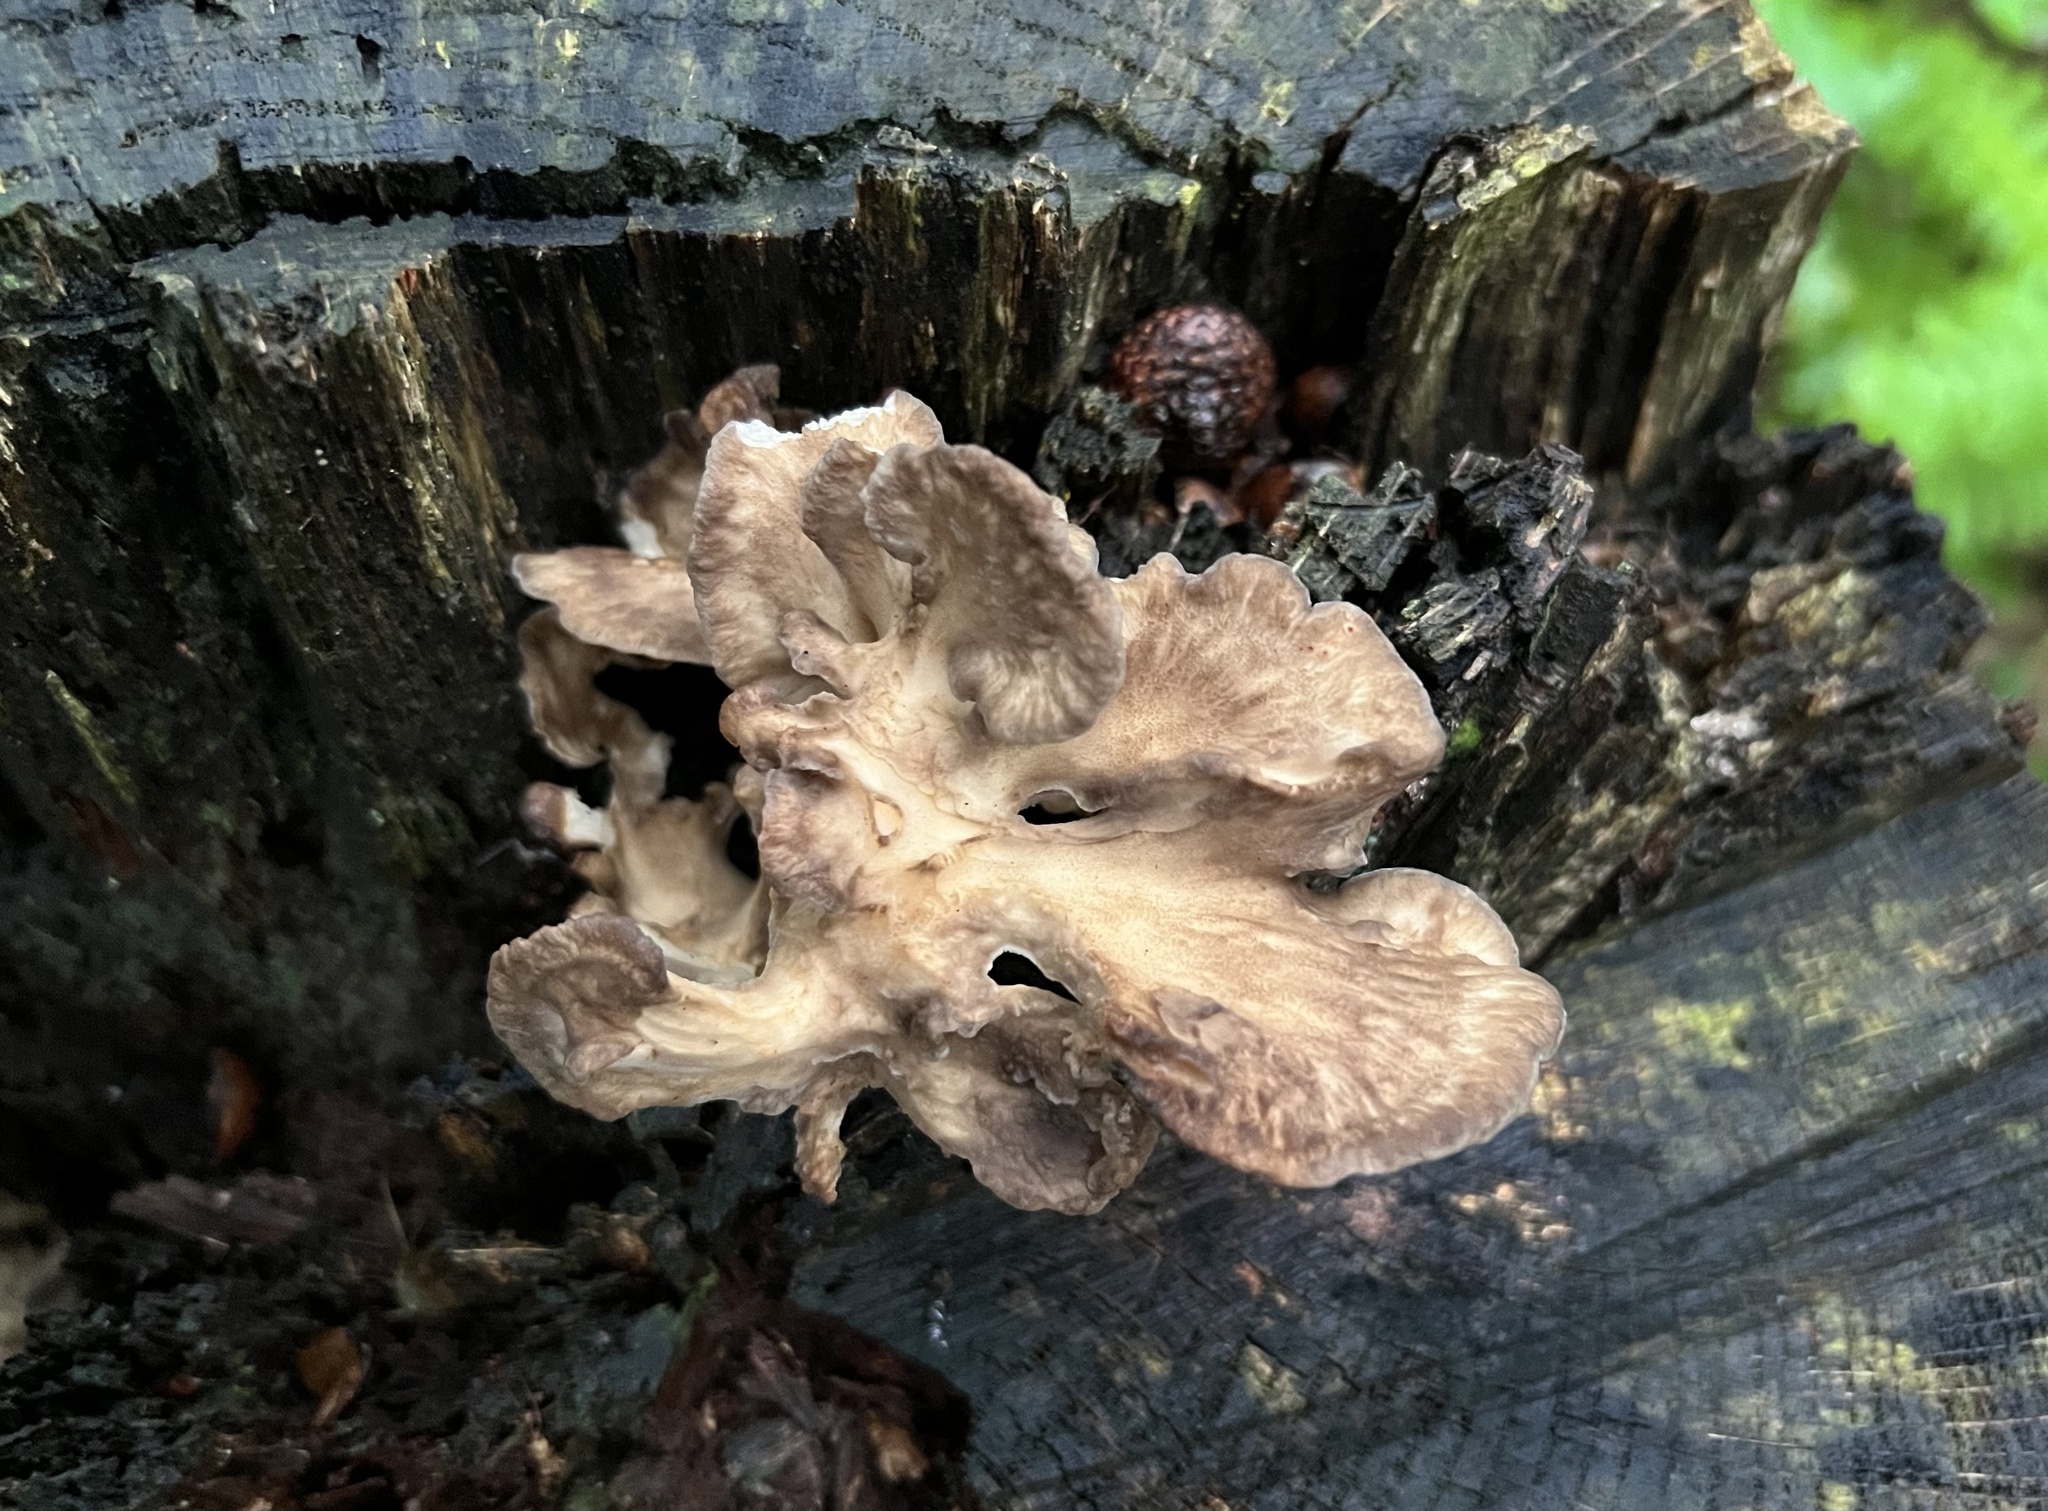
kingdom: Fungi
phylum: Basidiomycota
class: Agaricomycetes
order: Polyporales
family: Grifolaceae
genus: Grifola
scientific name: Grifola frondosa
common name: Hen of the woods
